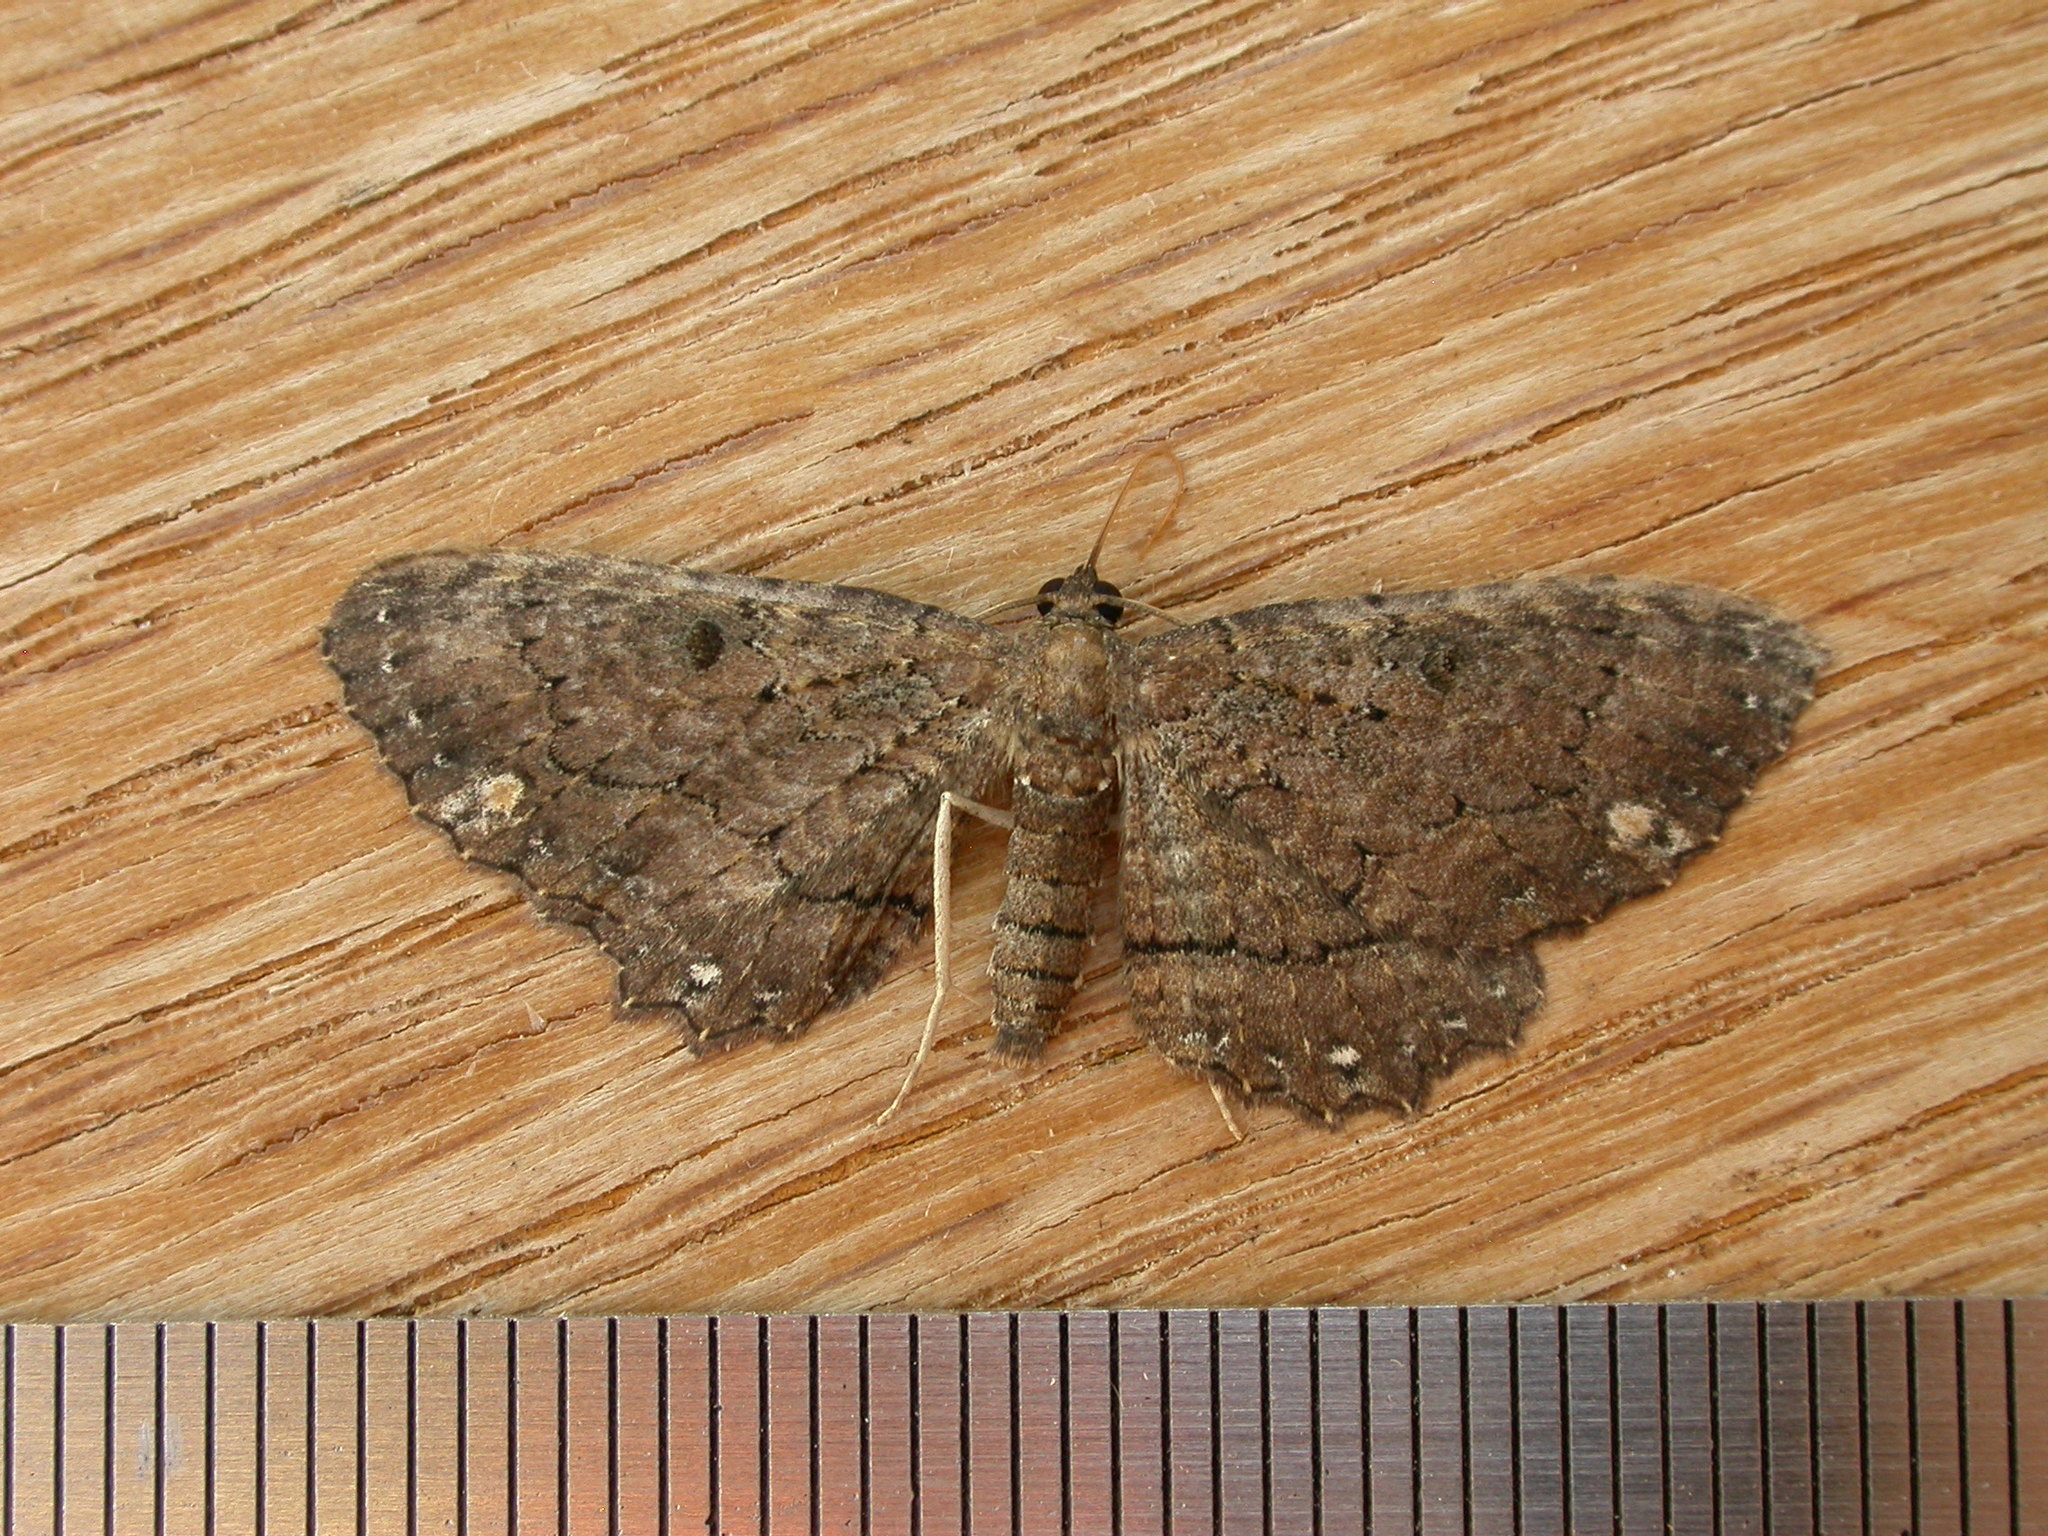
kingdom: Animalia
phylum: Arthropoda
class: Insecta
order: Lepidoptera
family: Geometridae
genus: Eccymatoge
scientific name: Eccymatoge fulvida
